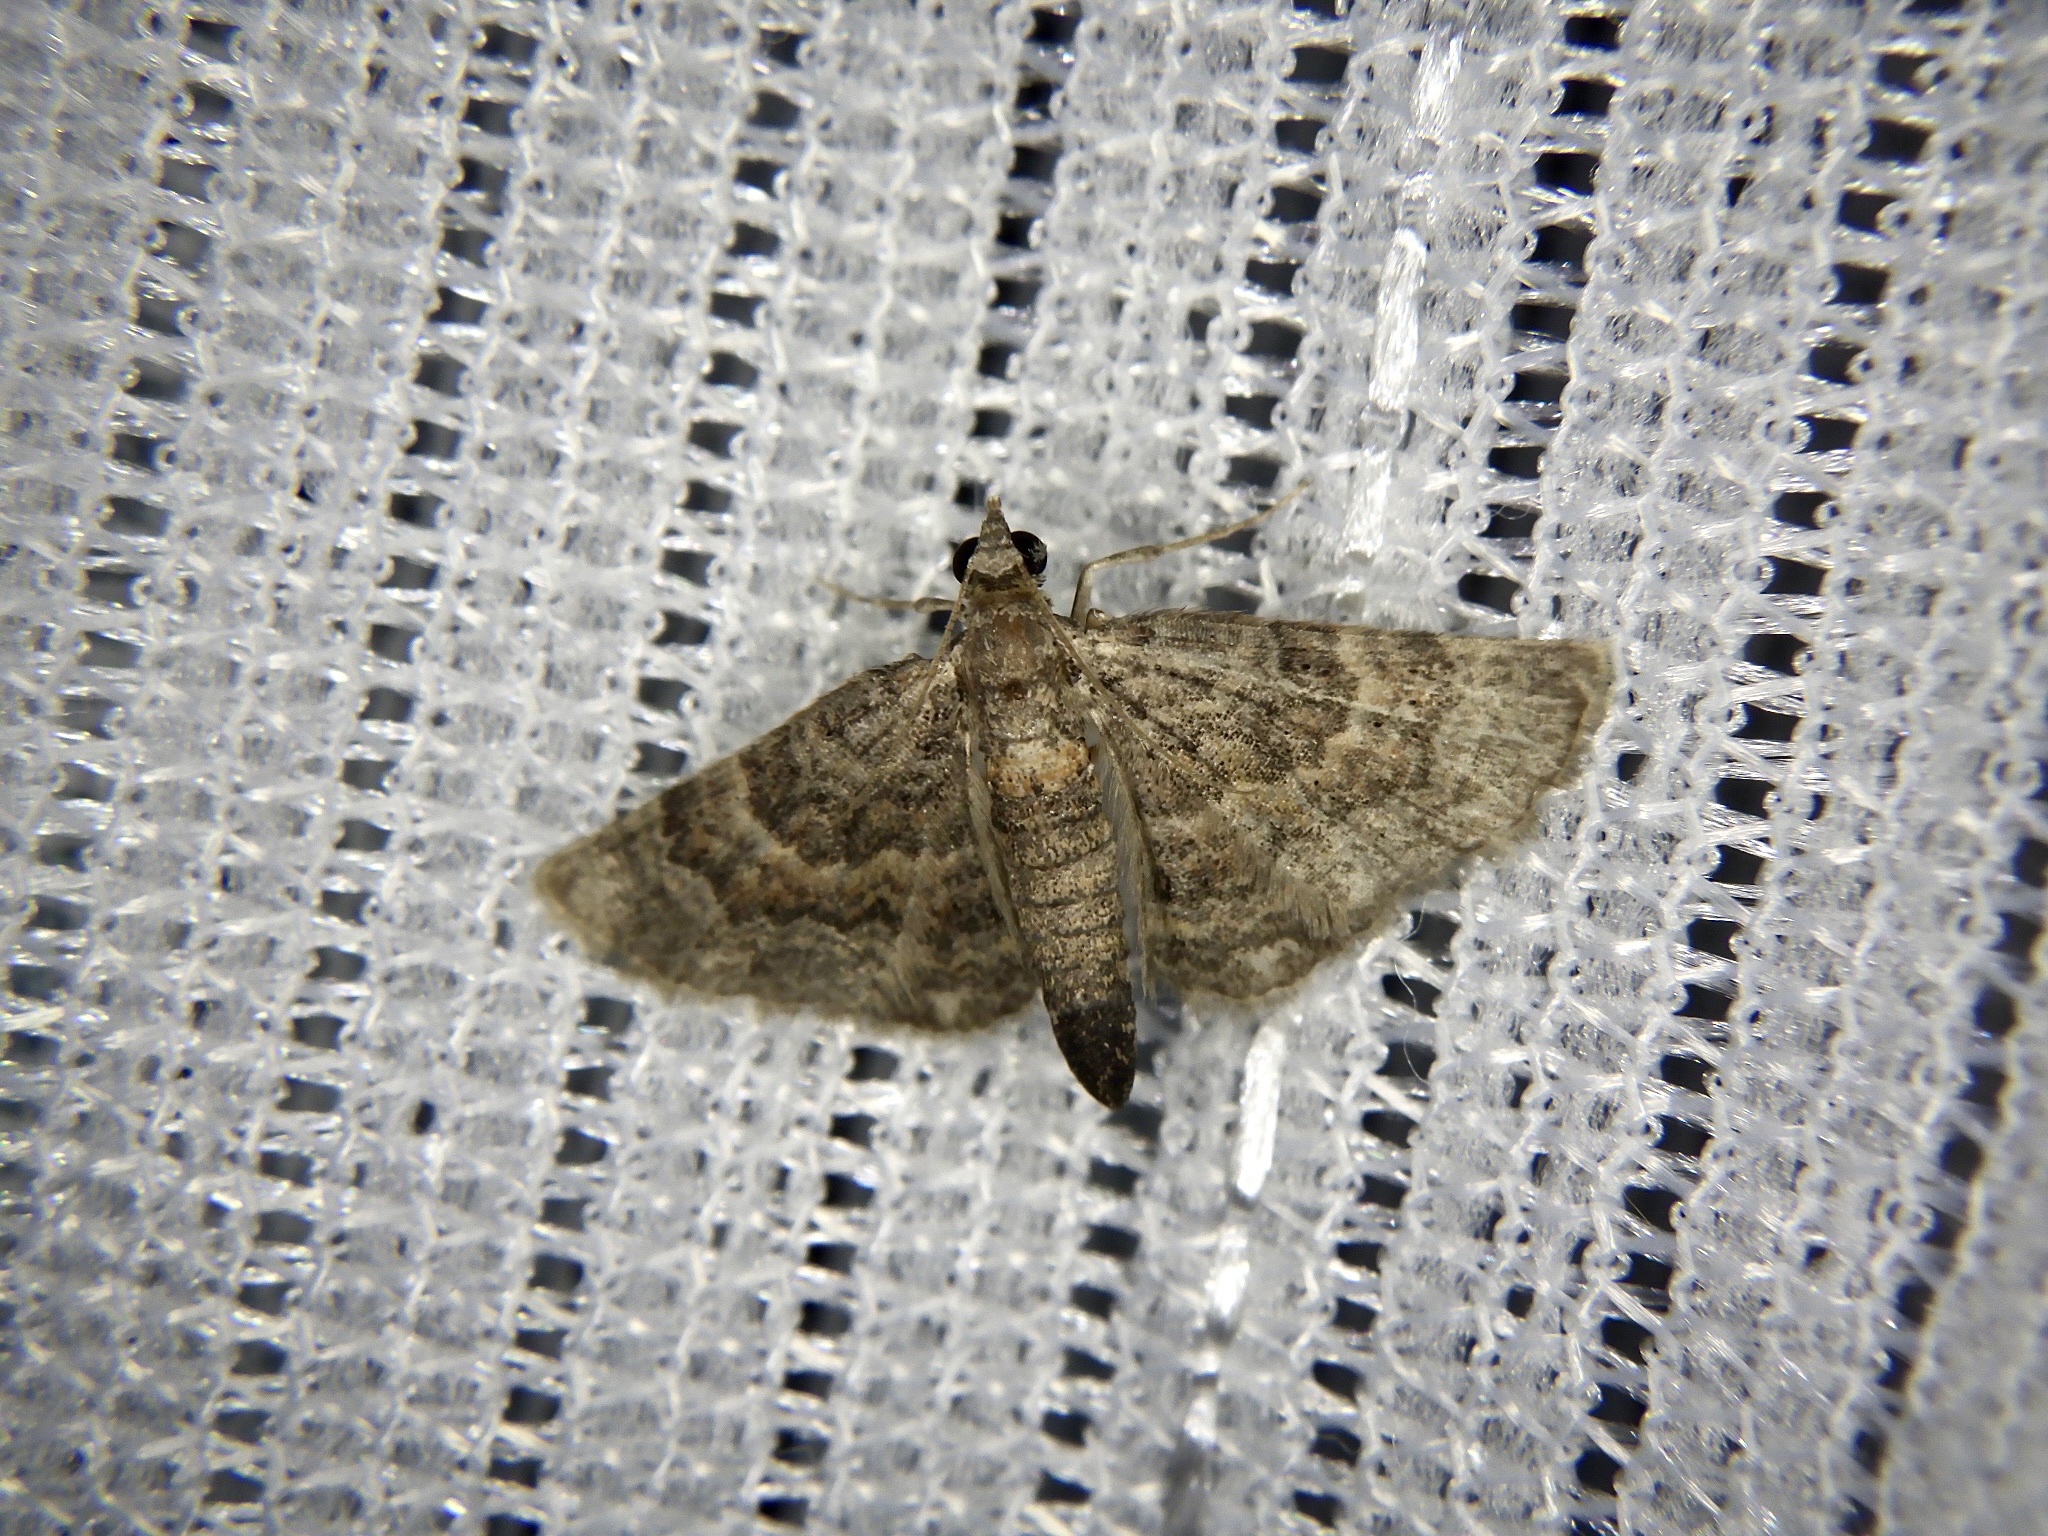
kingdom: Animalia
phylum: Arthropoda
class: Insecta
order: Lepidoptera
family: Geometridae
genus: Gymnoscelis
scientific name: Gymnoscelis esakii
